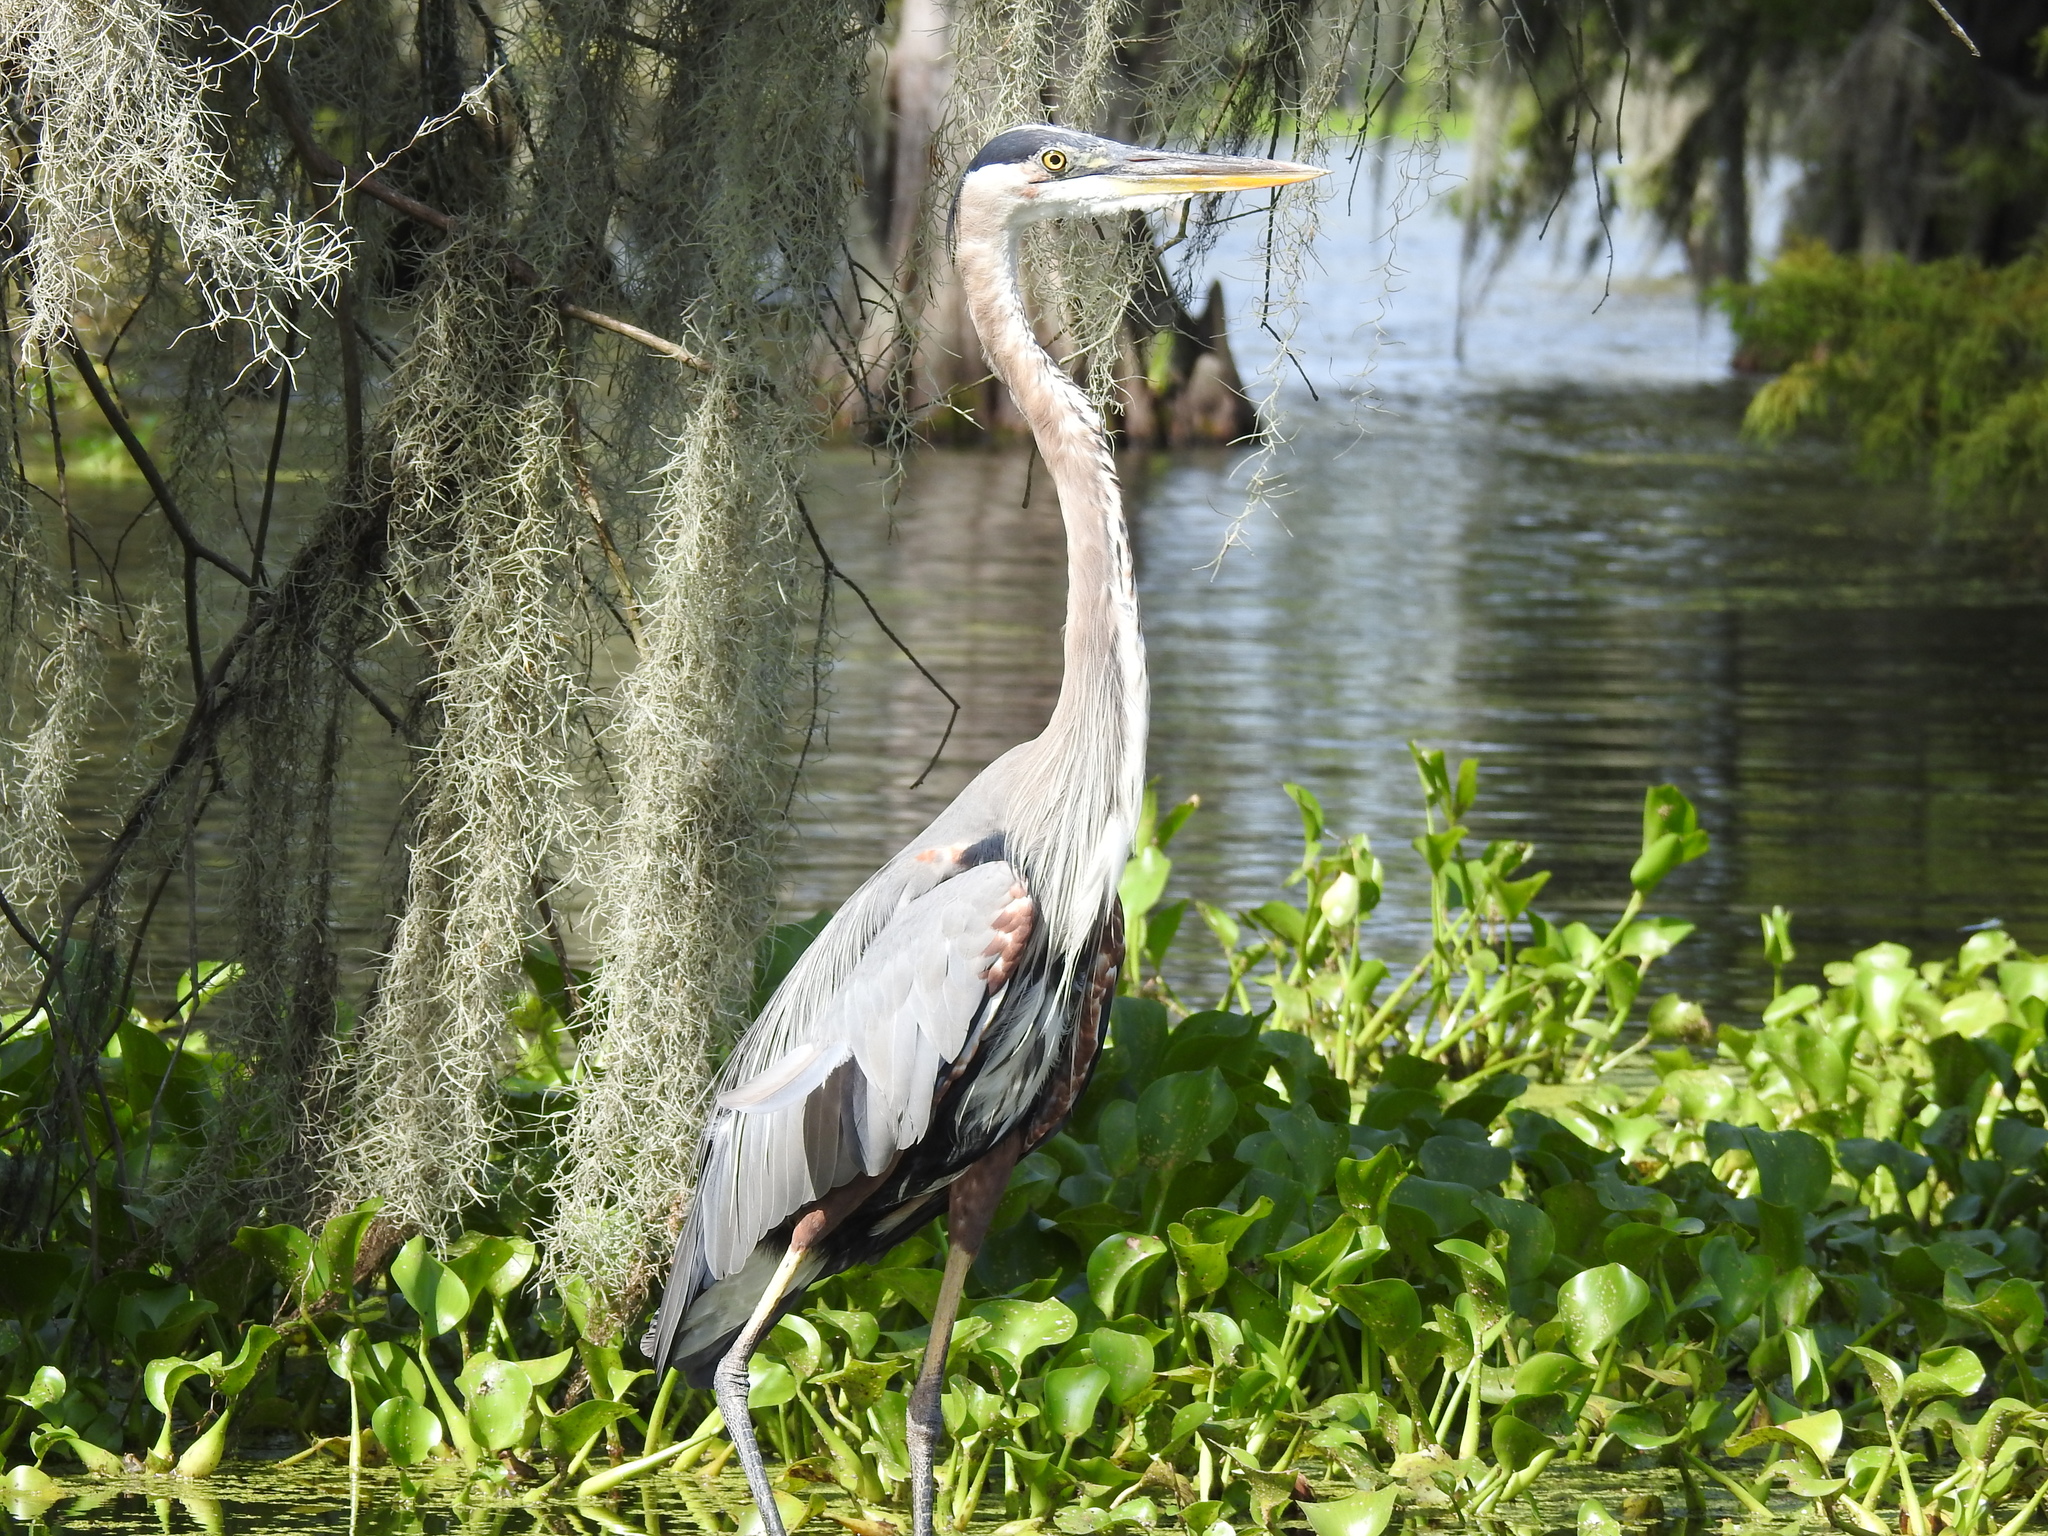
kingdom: Animalia
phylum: Chordata
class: Aves
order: Pelecaniformes
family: Ardeidae
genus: Ardea
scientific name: Ardea herodias
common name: Great blue heron
